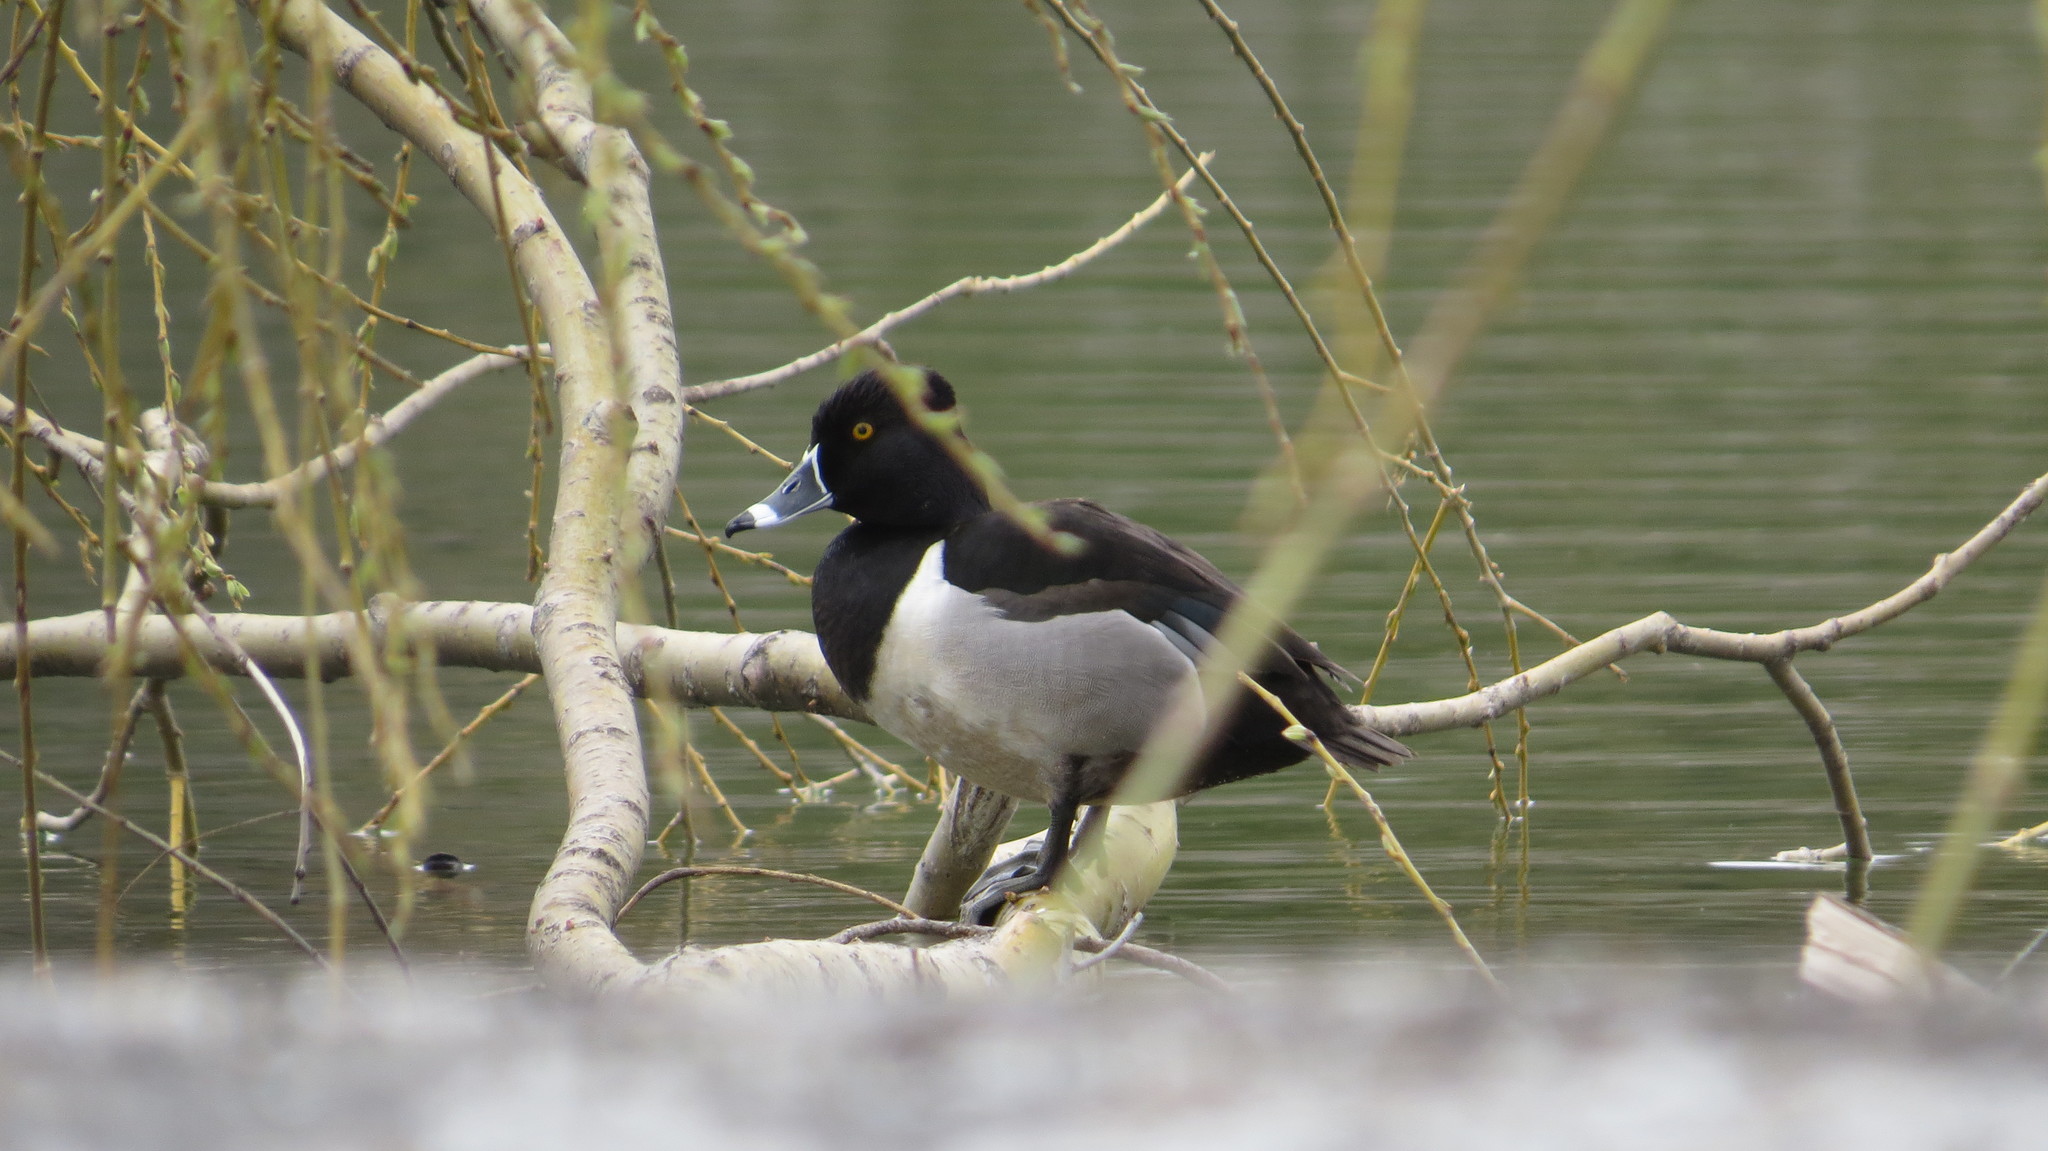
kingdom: Animalia
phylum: Chordata
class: Aves
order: Anseriformes
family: Anatidae
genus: Aythya
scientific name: Aythya collaris
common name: Ring-necked duck
